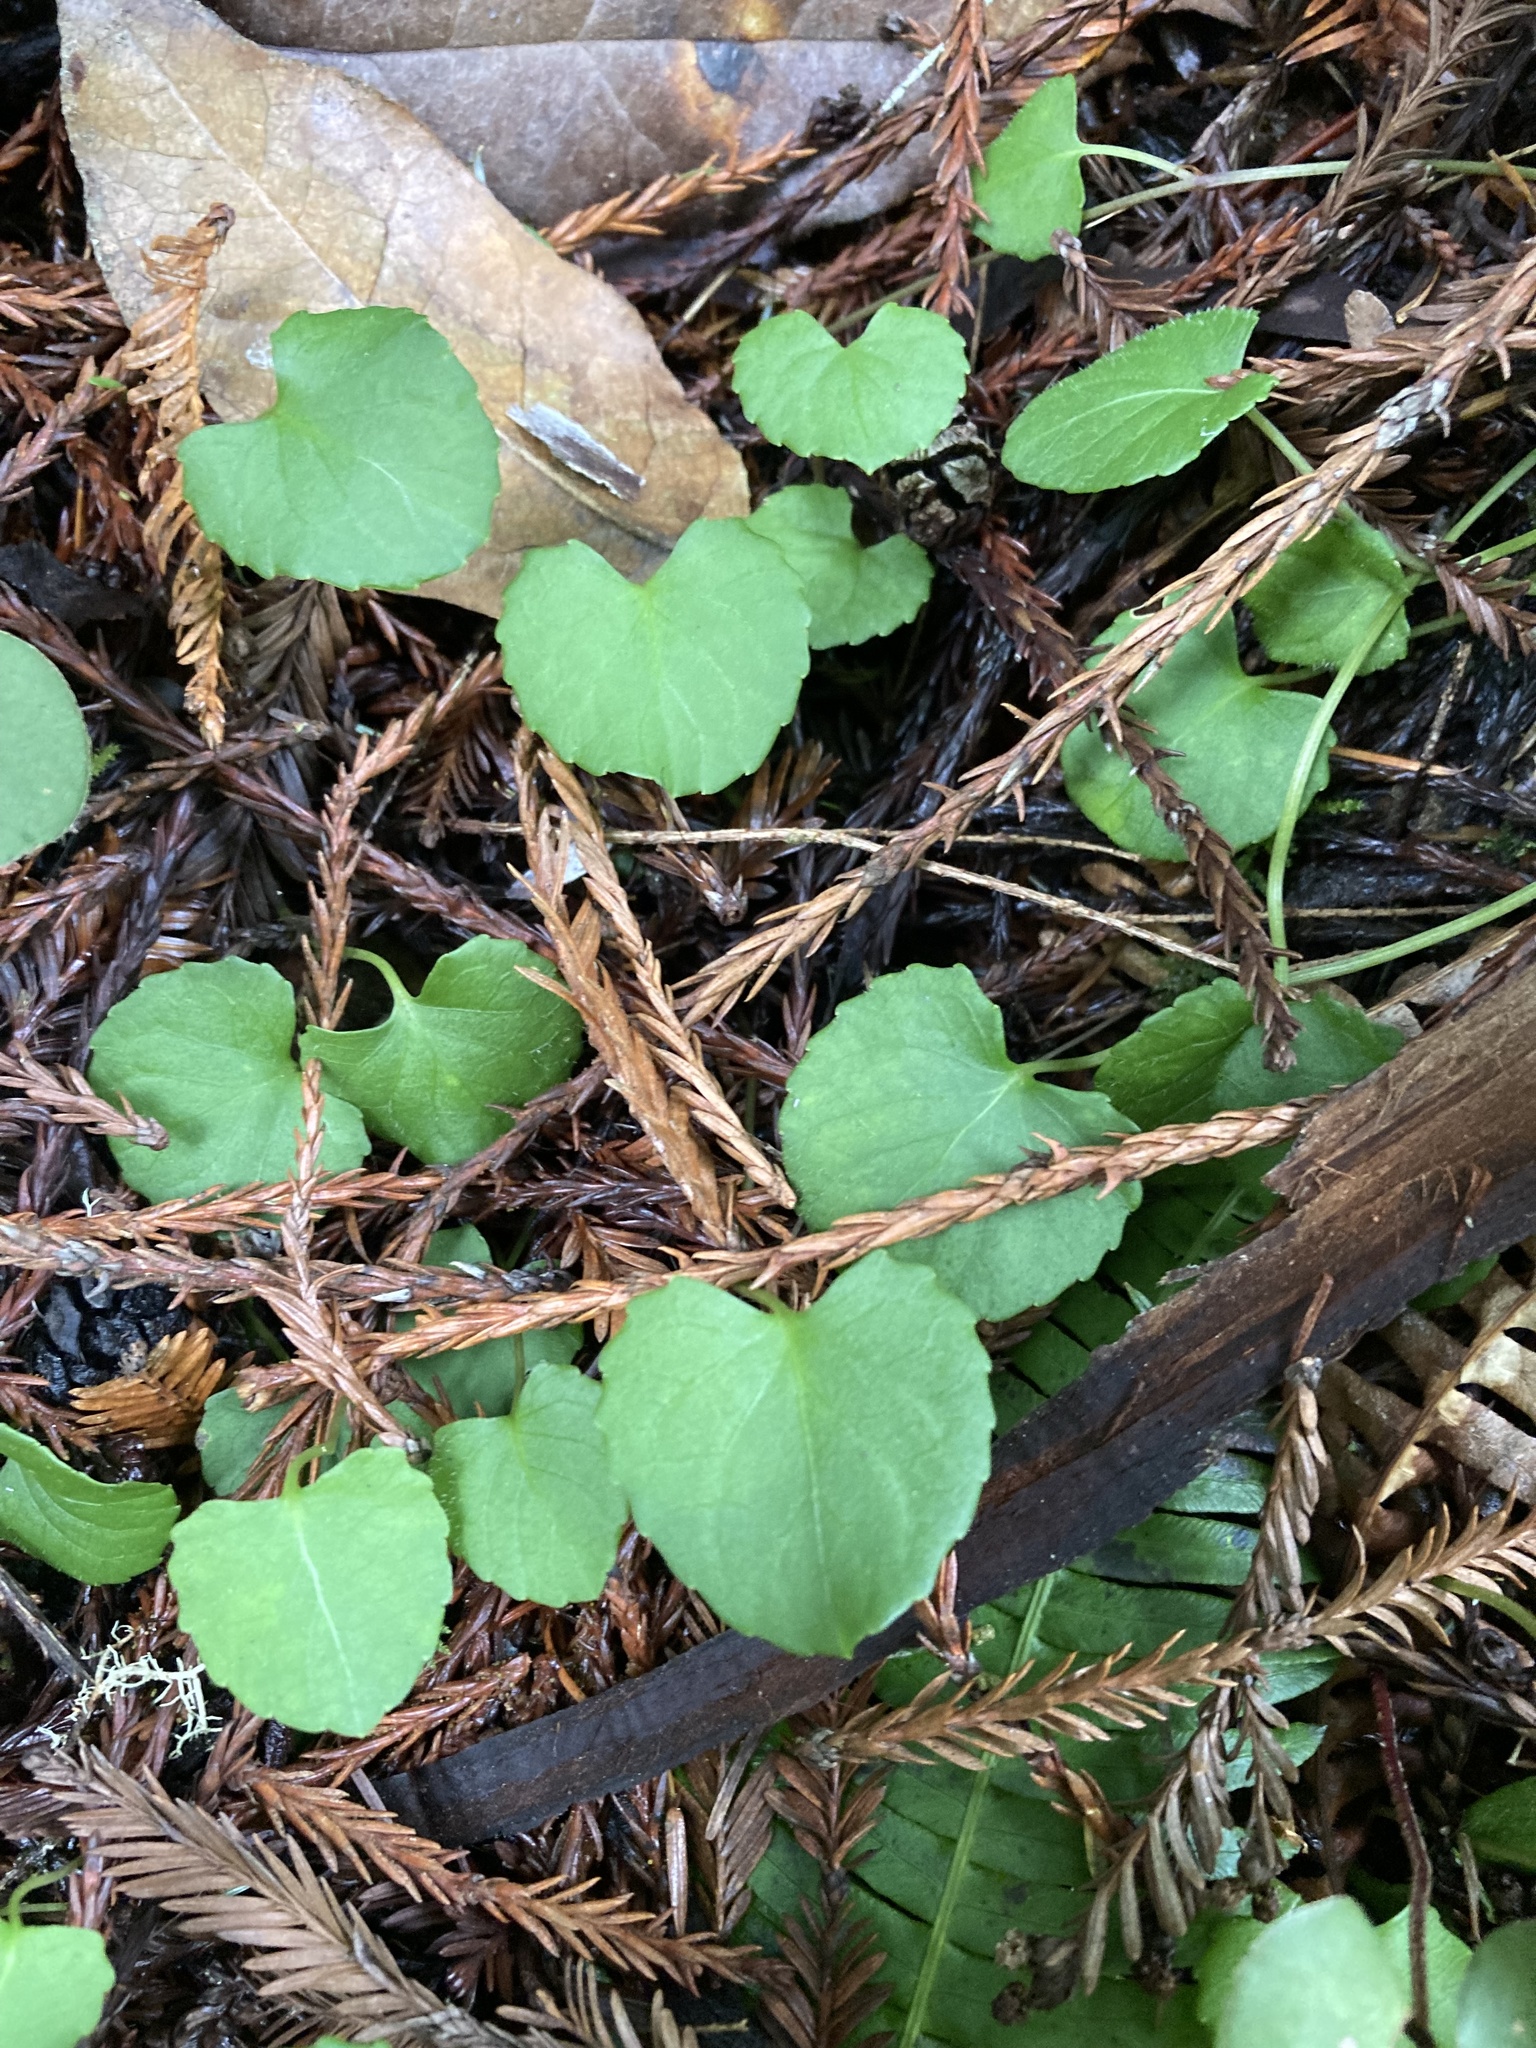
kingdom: Plantae
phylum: Tracheophyta
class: Magnoliopsida
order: Malpighiales
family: Violaceae
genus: Viola
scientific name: Viola sempervirens
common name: Evergreen violet
